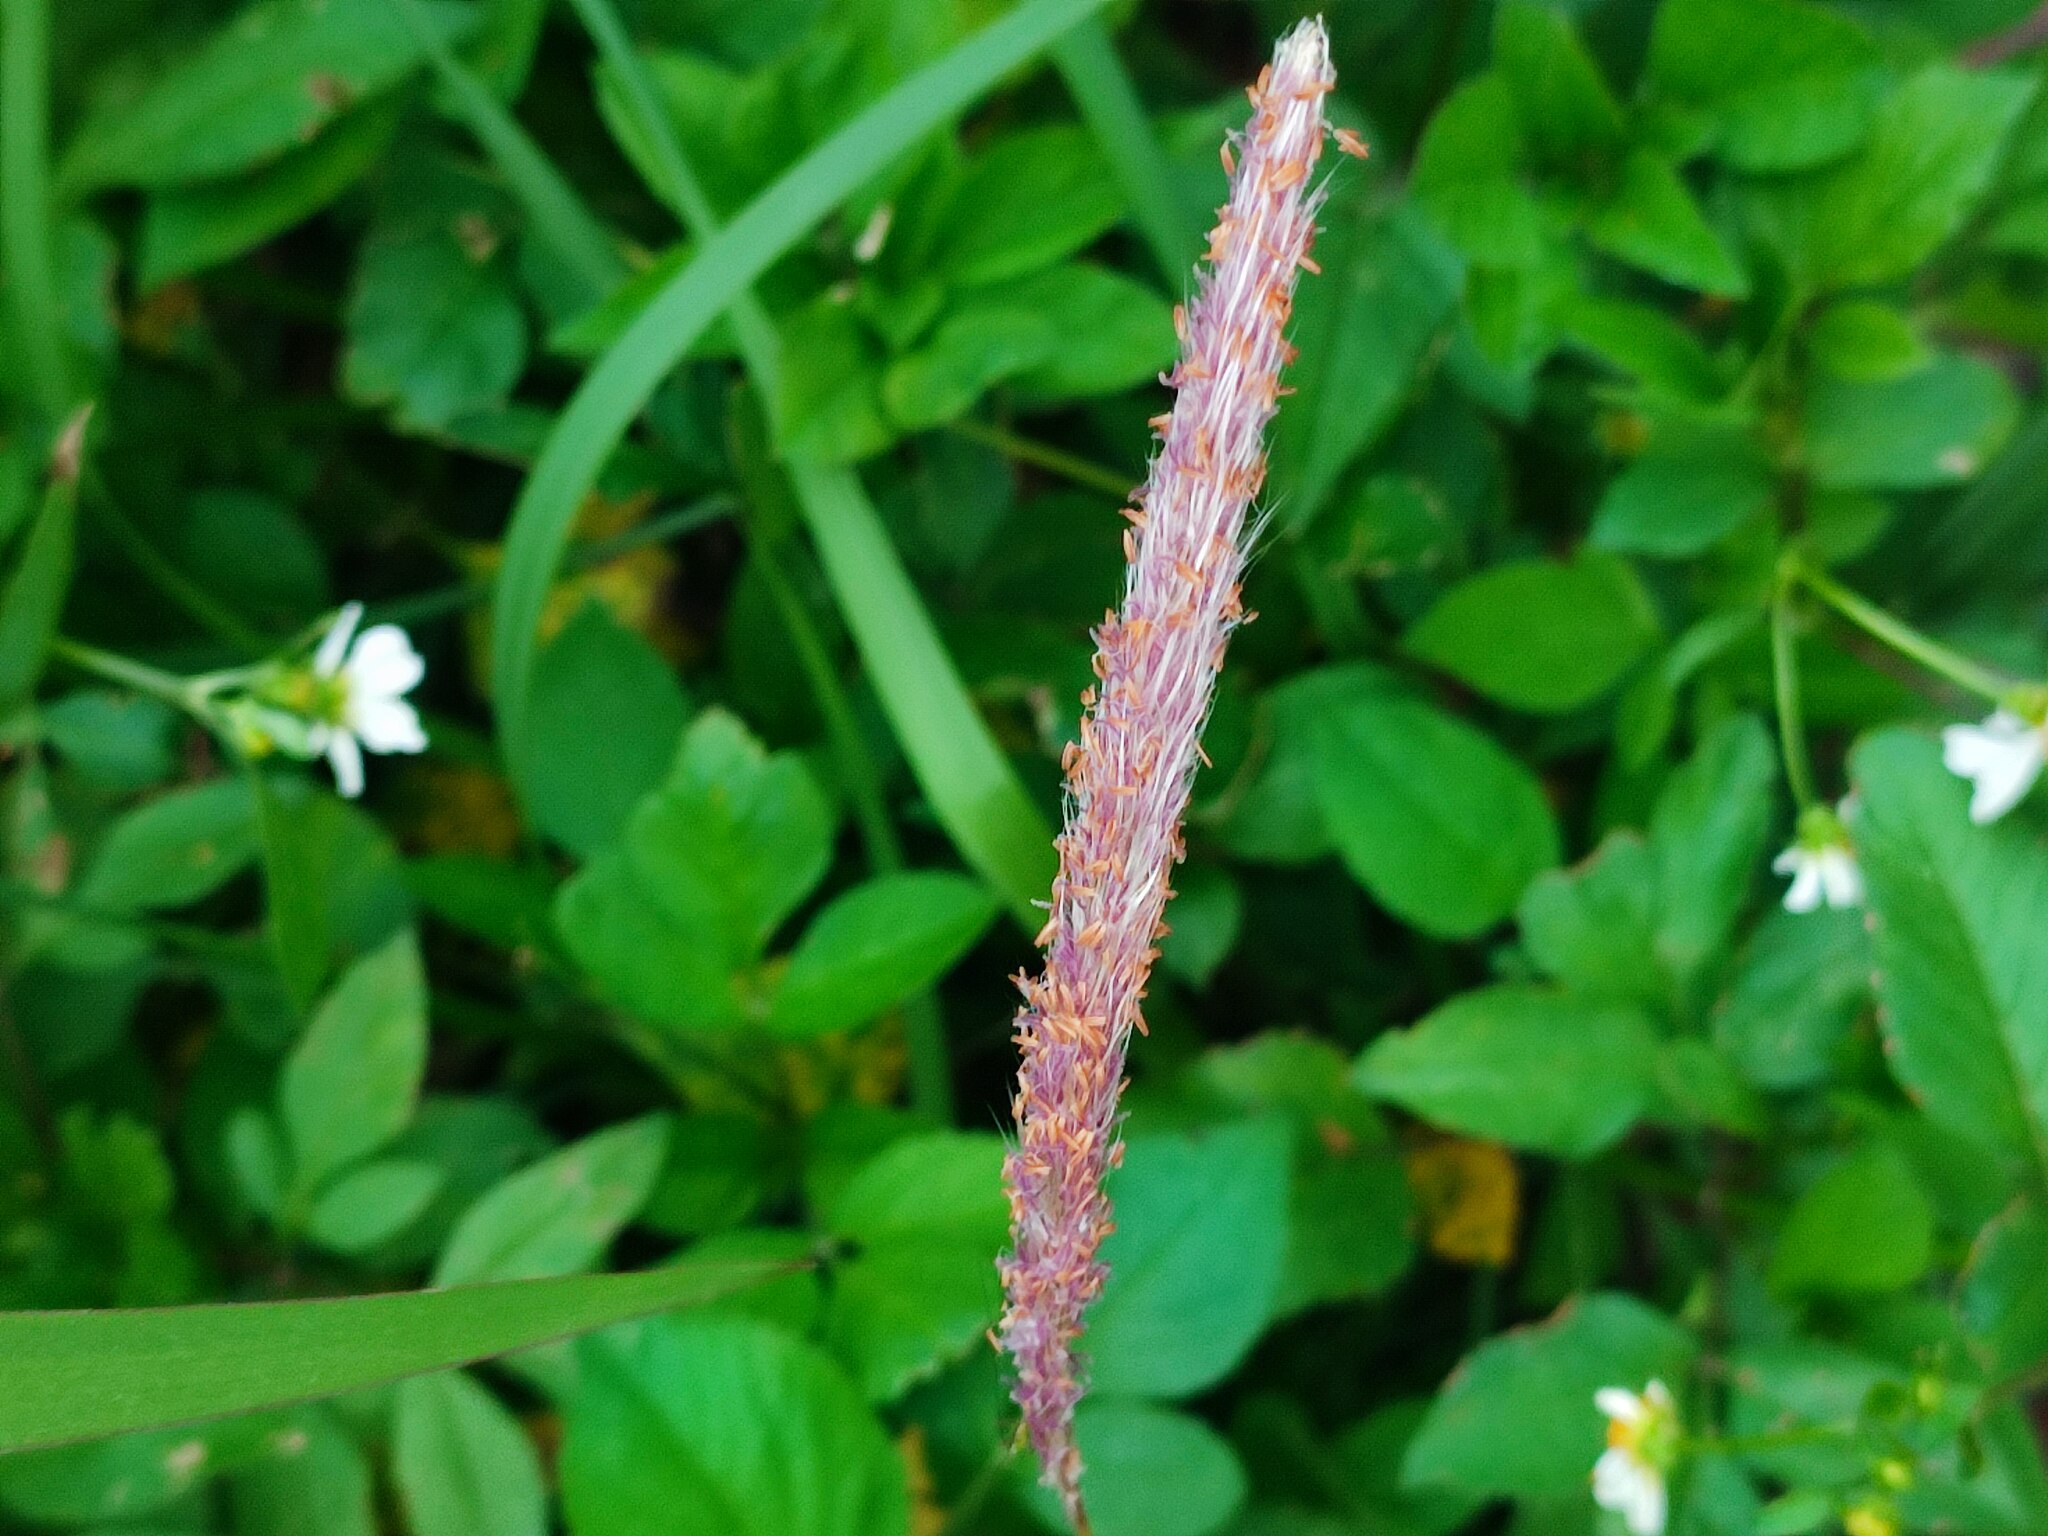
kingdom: Plantae
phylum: Tracheophyta
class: Liliopsida
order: Poales
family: Poaceae
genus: Imperata
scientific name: Imperata cylindrica
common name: Cogongrass
